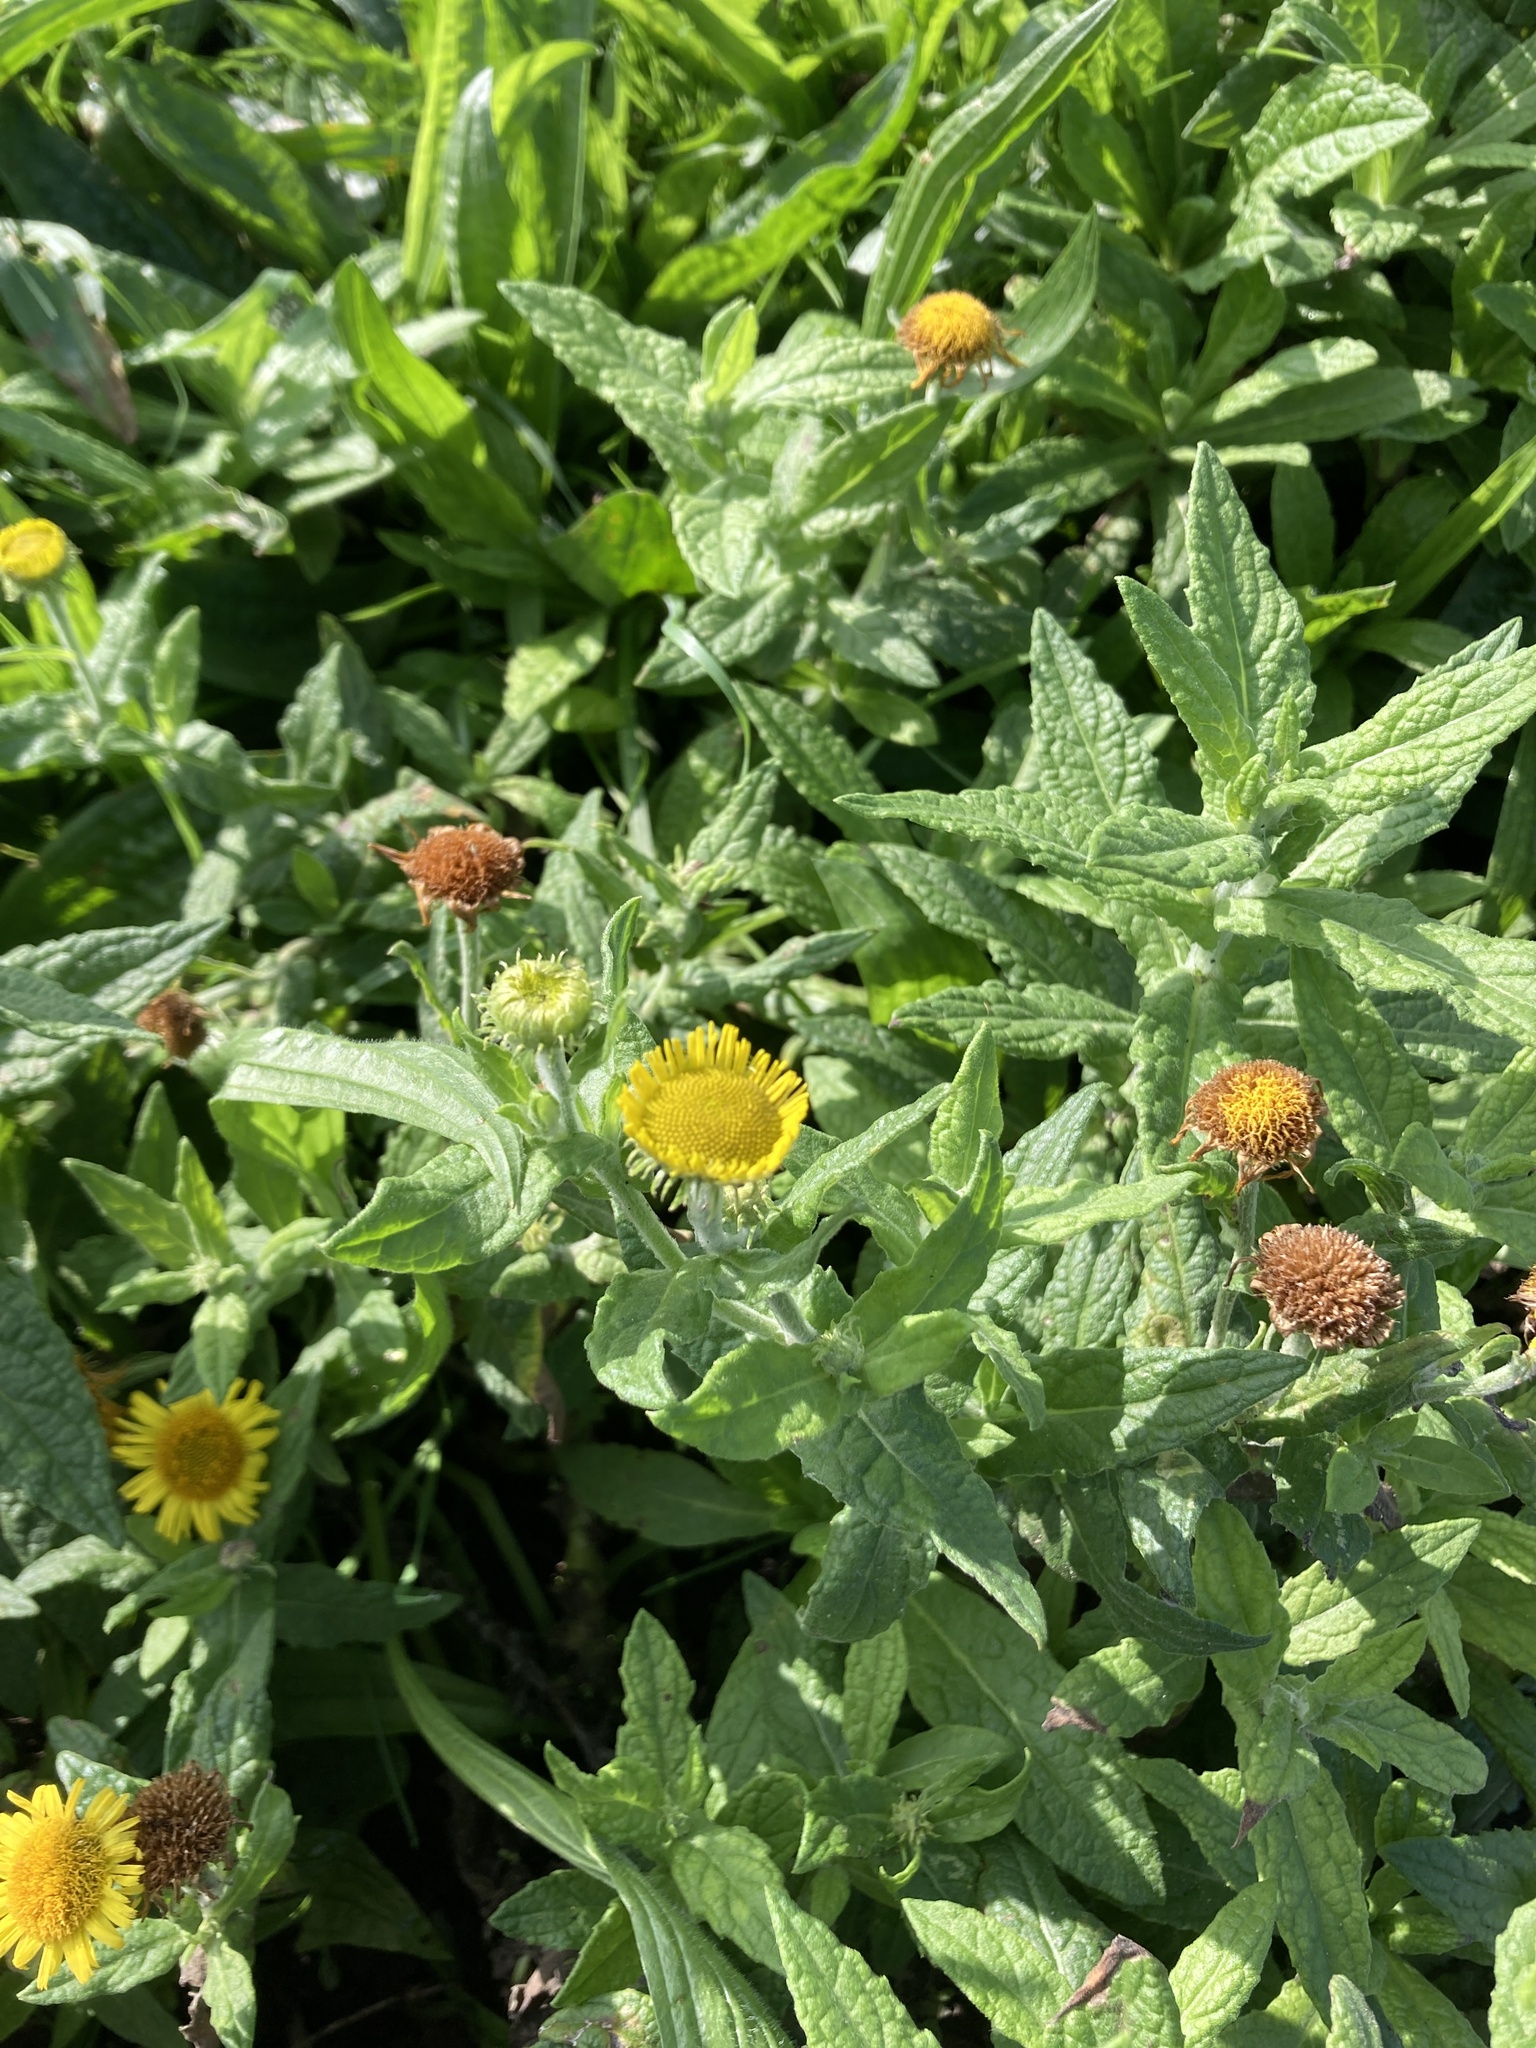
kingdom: Plantae
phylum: Tracheophyta
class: Magnoliopsida
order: Asterales
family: Asteraceae
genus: Pulicaria
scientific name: Pulicaria dysenterica
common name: Common fleabane
